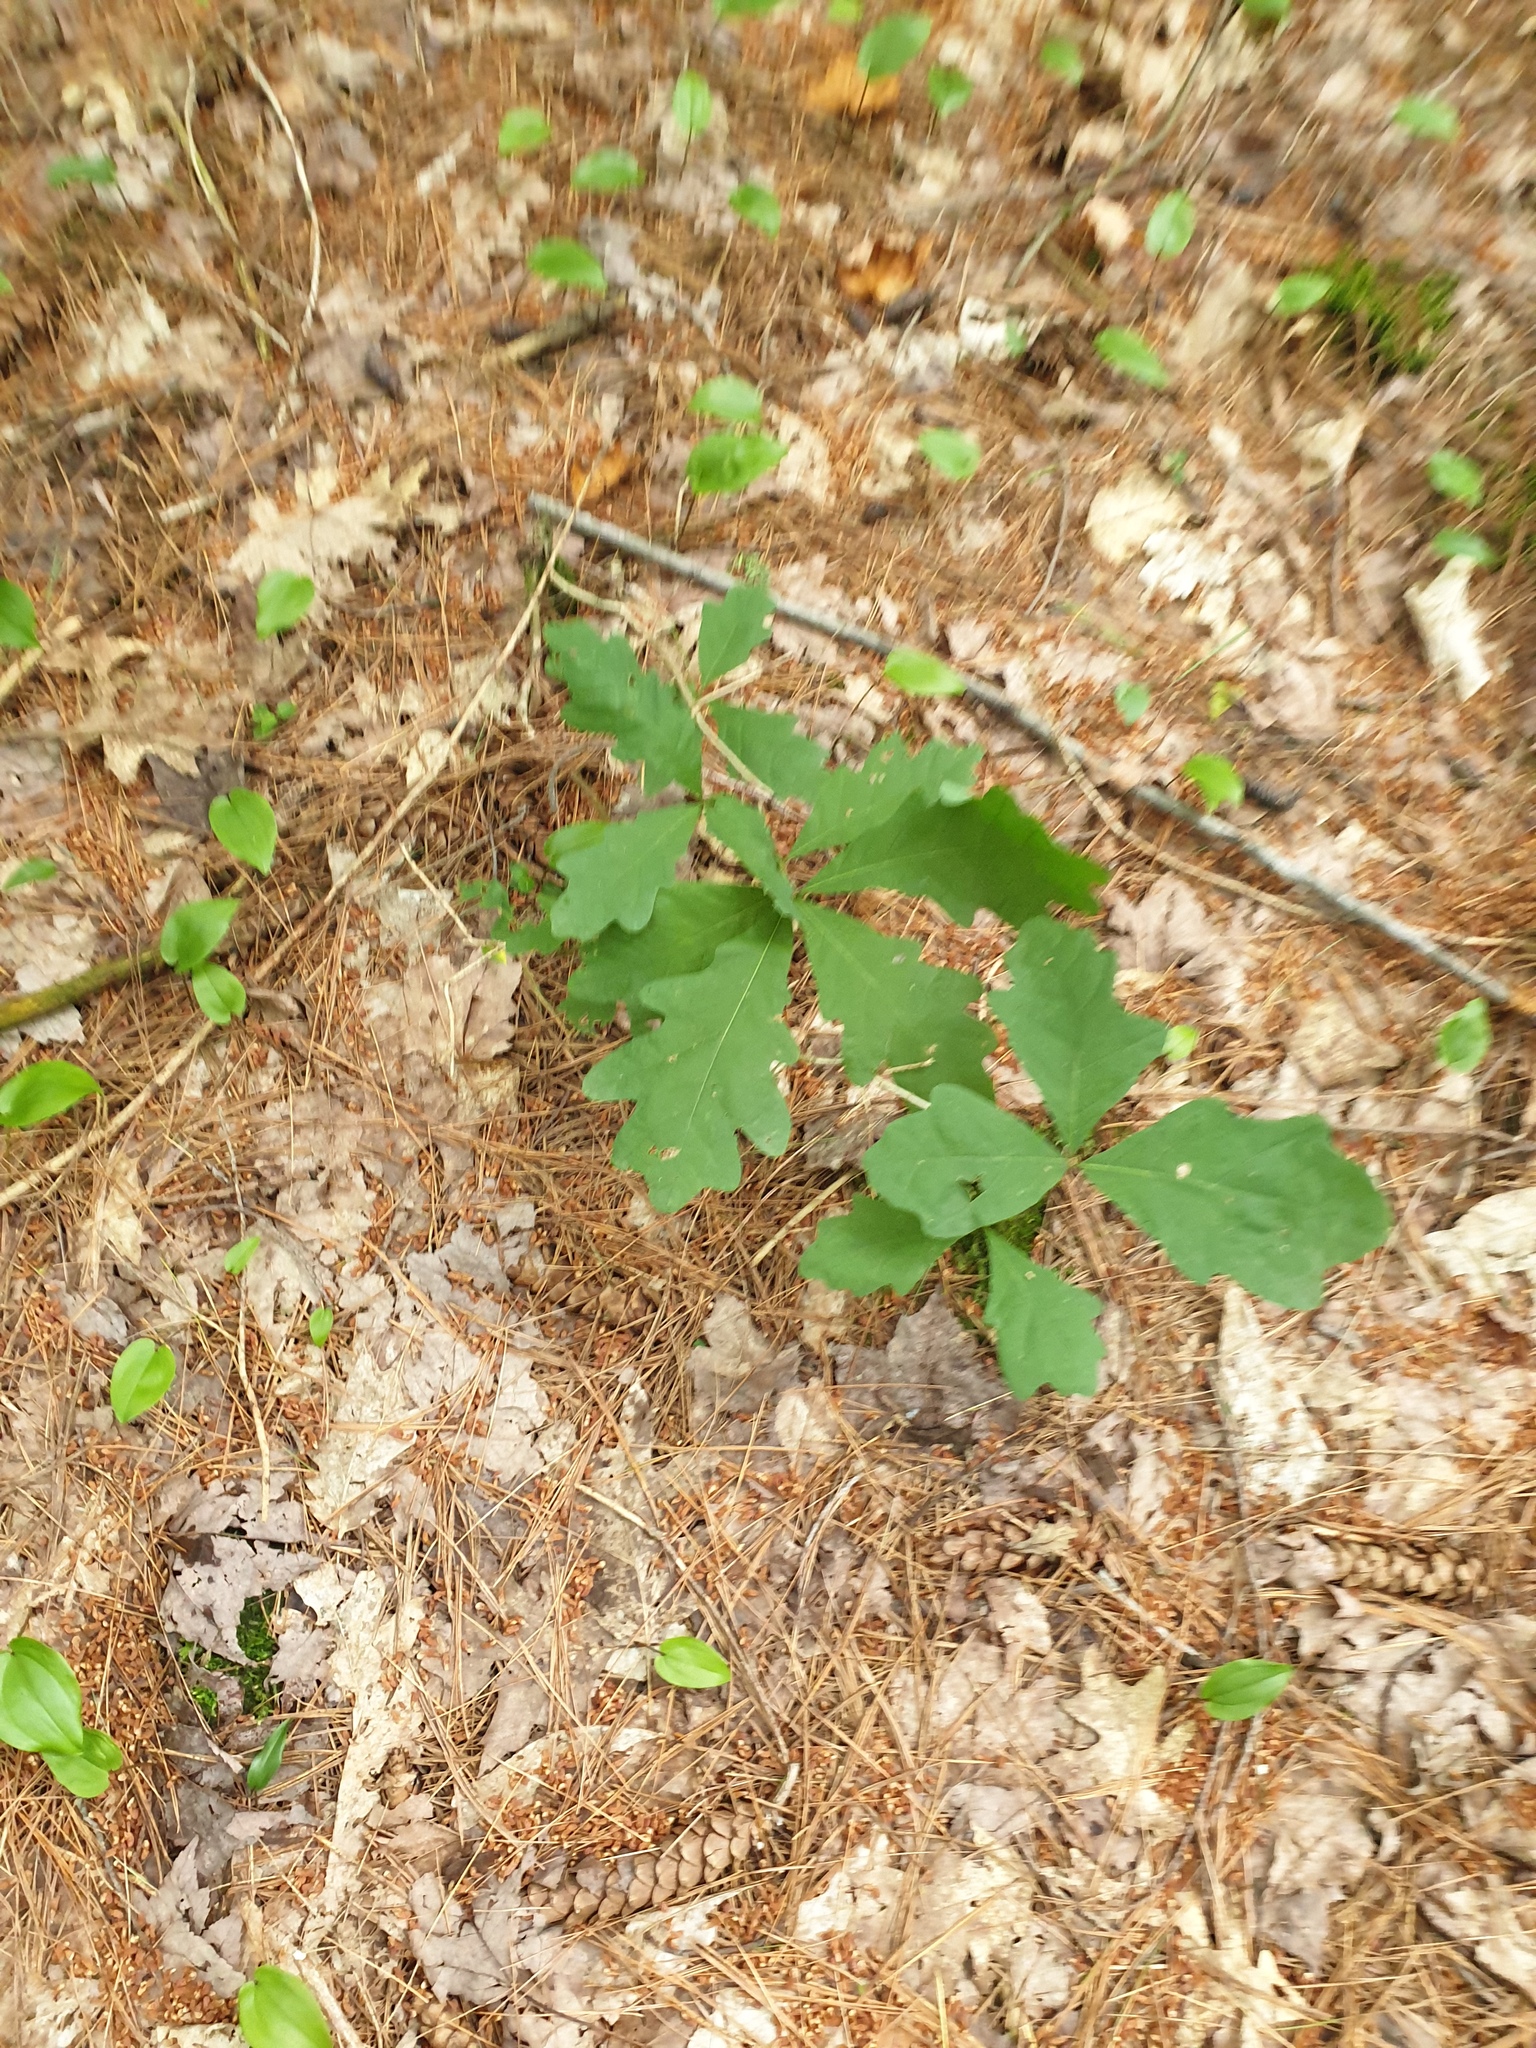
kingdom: Plantae
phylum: Tracheophyta
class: Magnoliopsida
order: Fagales
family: Fagaceae
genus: Quercus
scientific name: Quercus alba
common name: White oak
